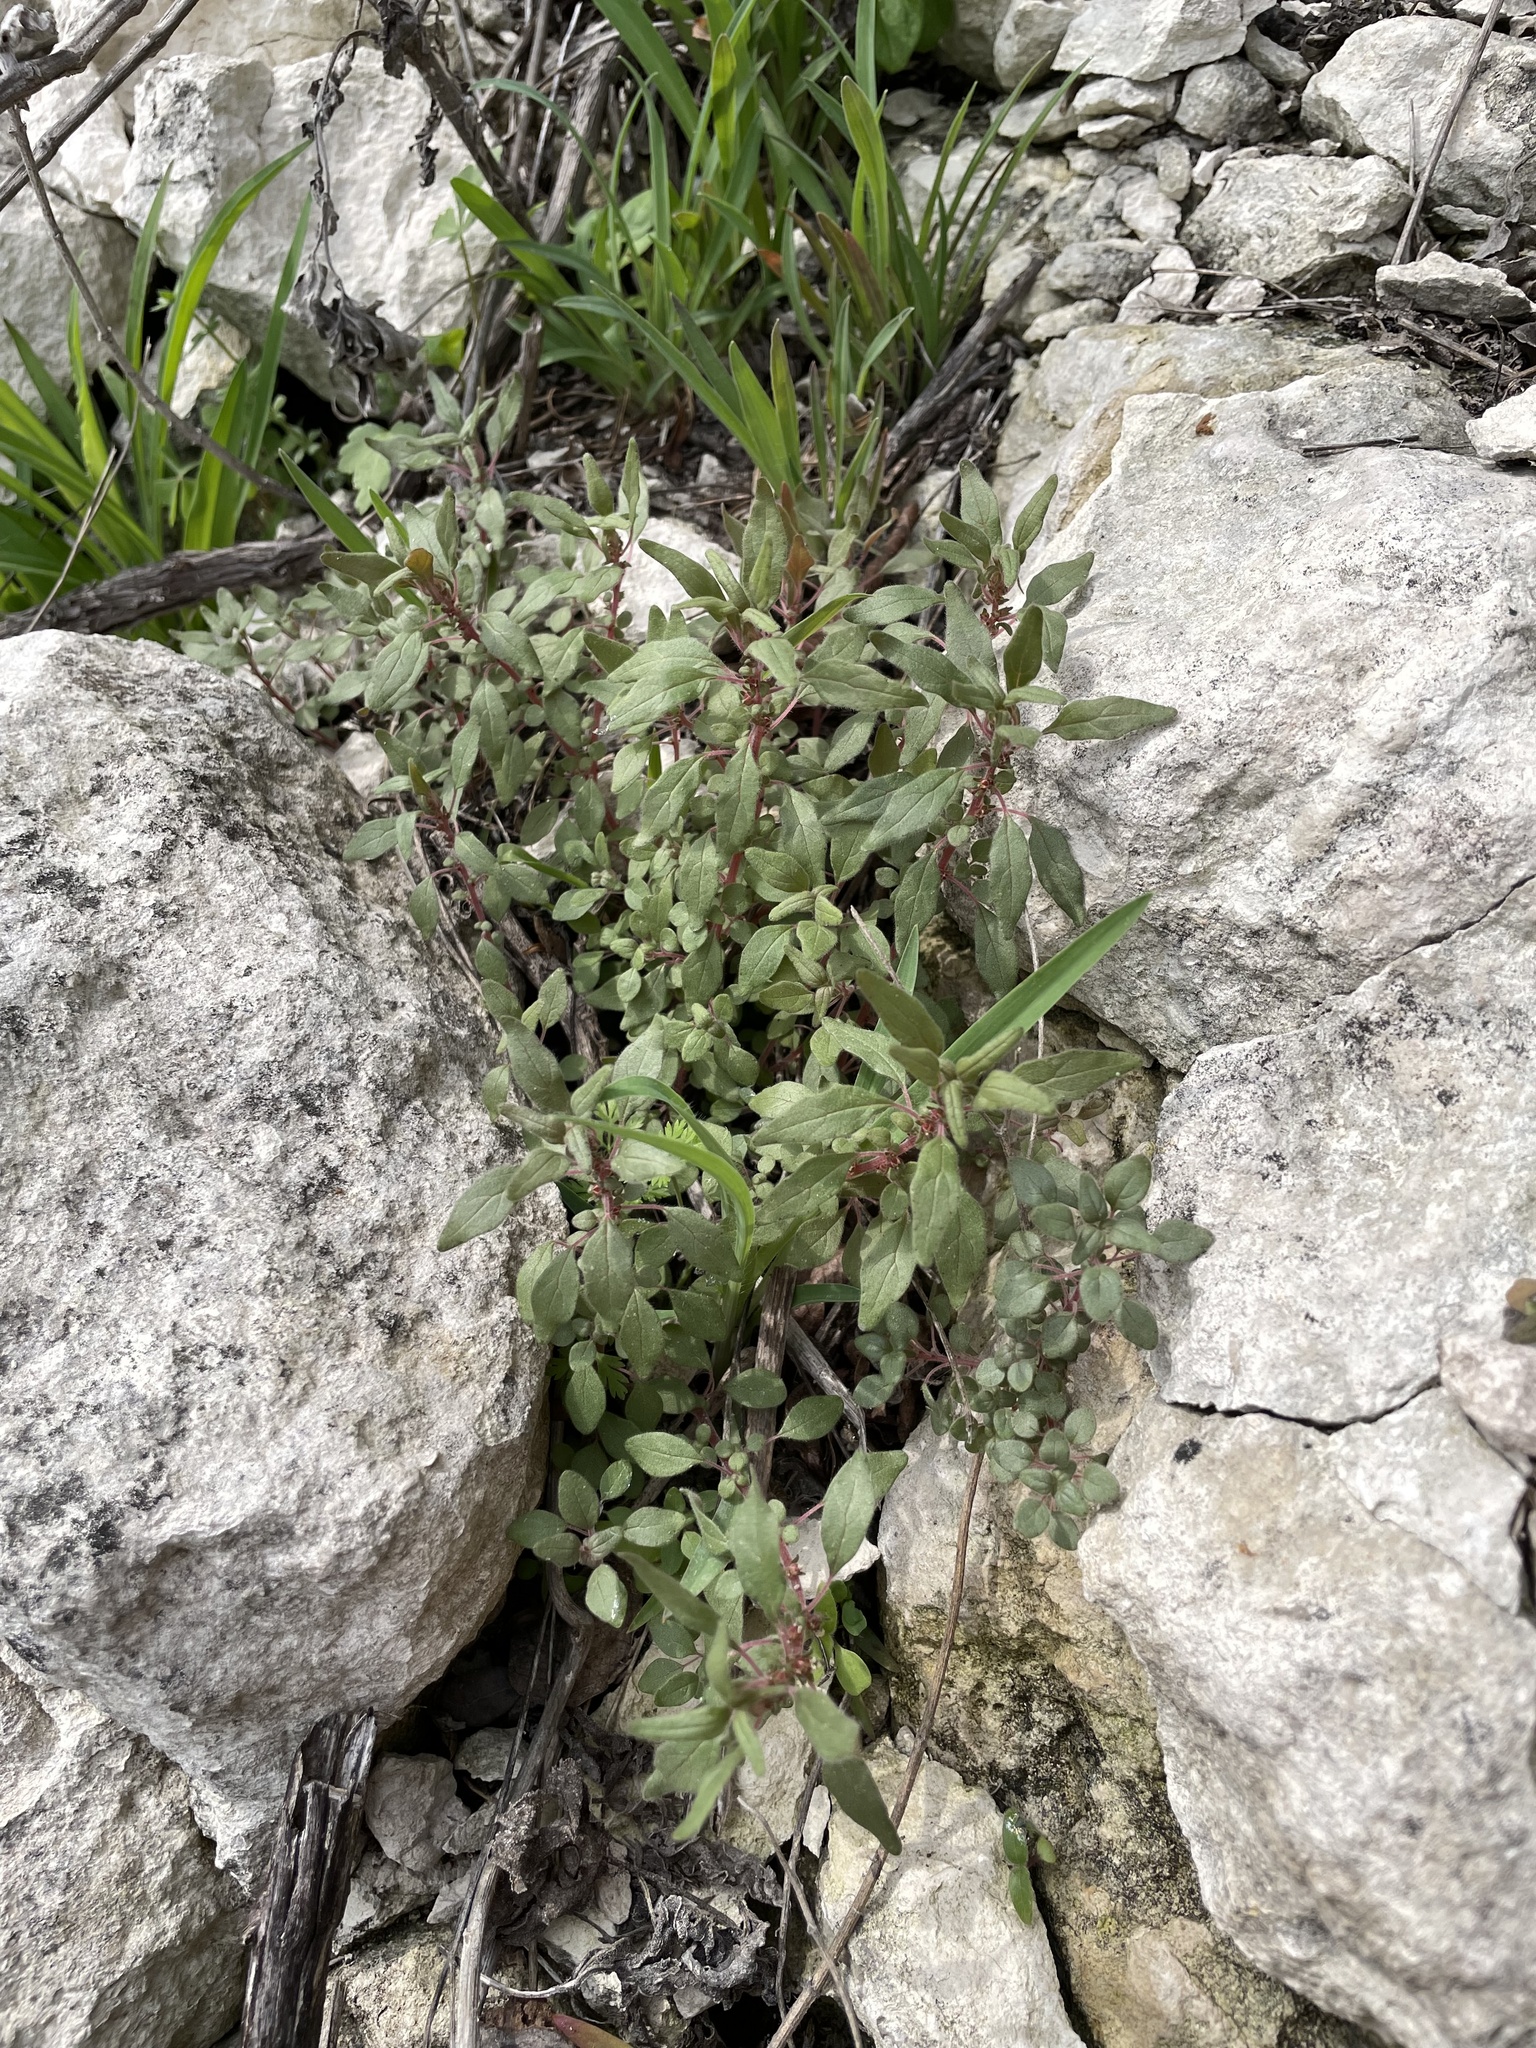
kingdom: Plantae
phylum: Tracheophyta
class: Magnoliopsida
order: Rosales
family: Urticaceae
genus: Parietaria
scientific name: Parietaria pensylvanica
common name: Pennsylvania pellitory
